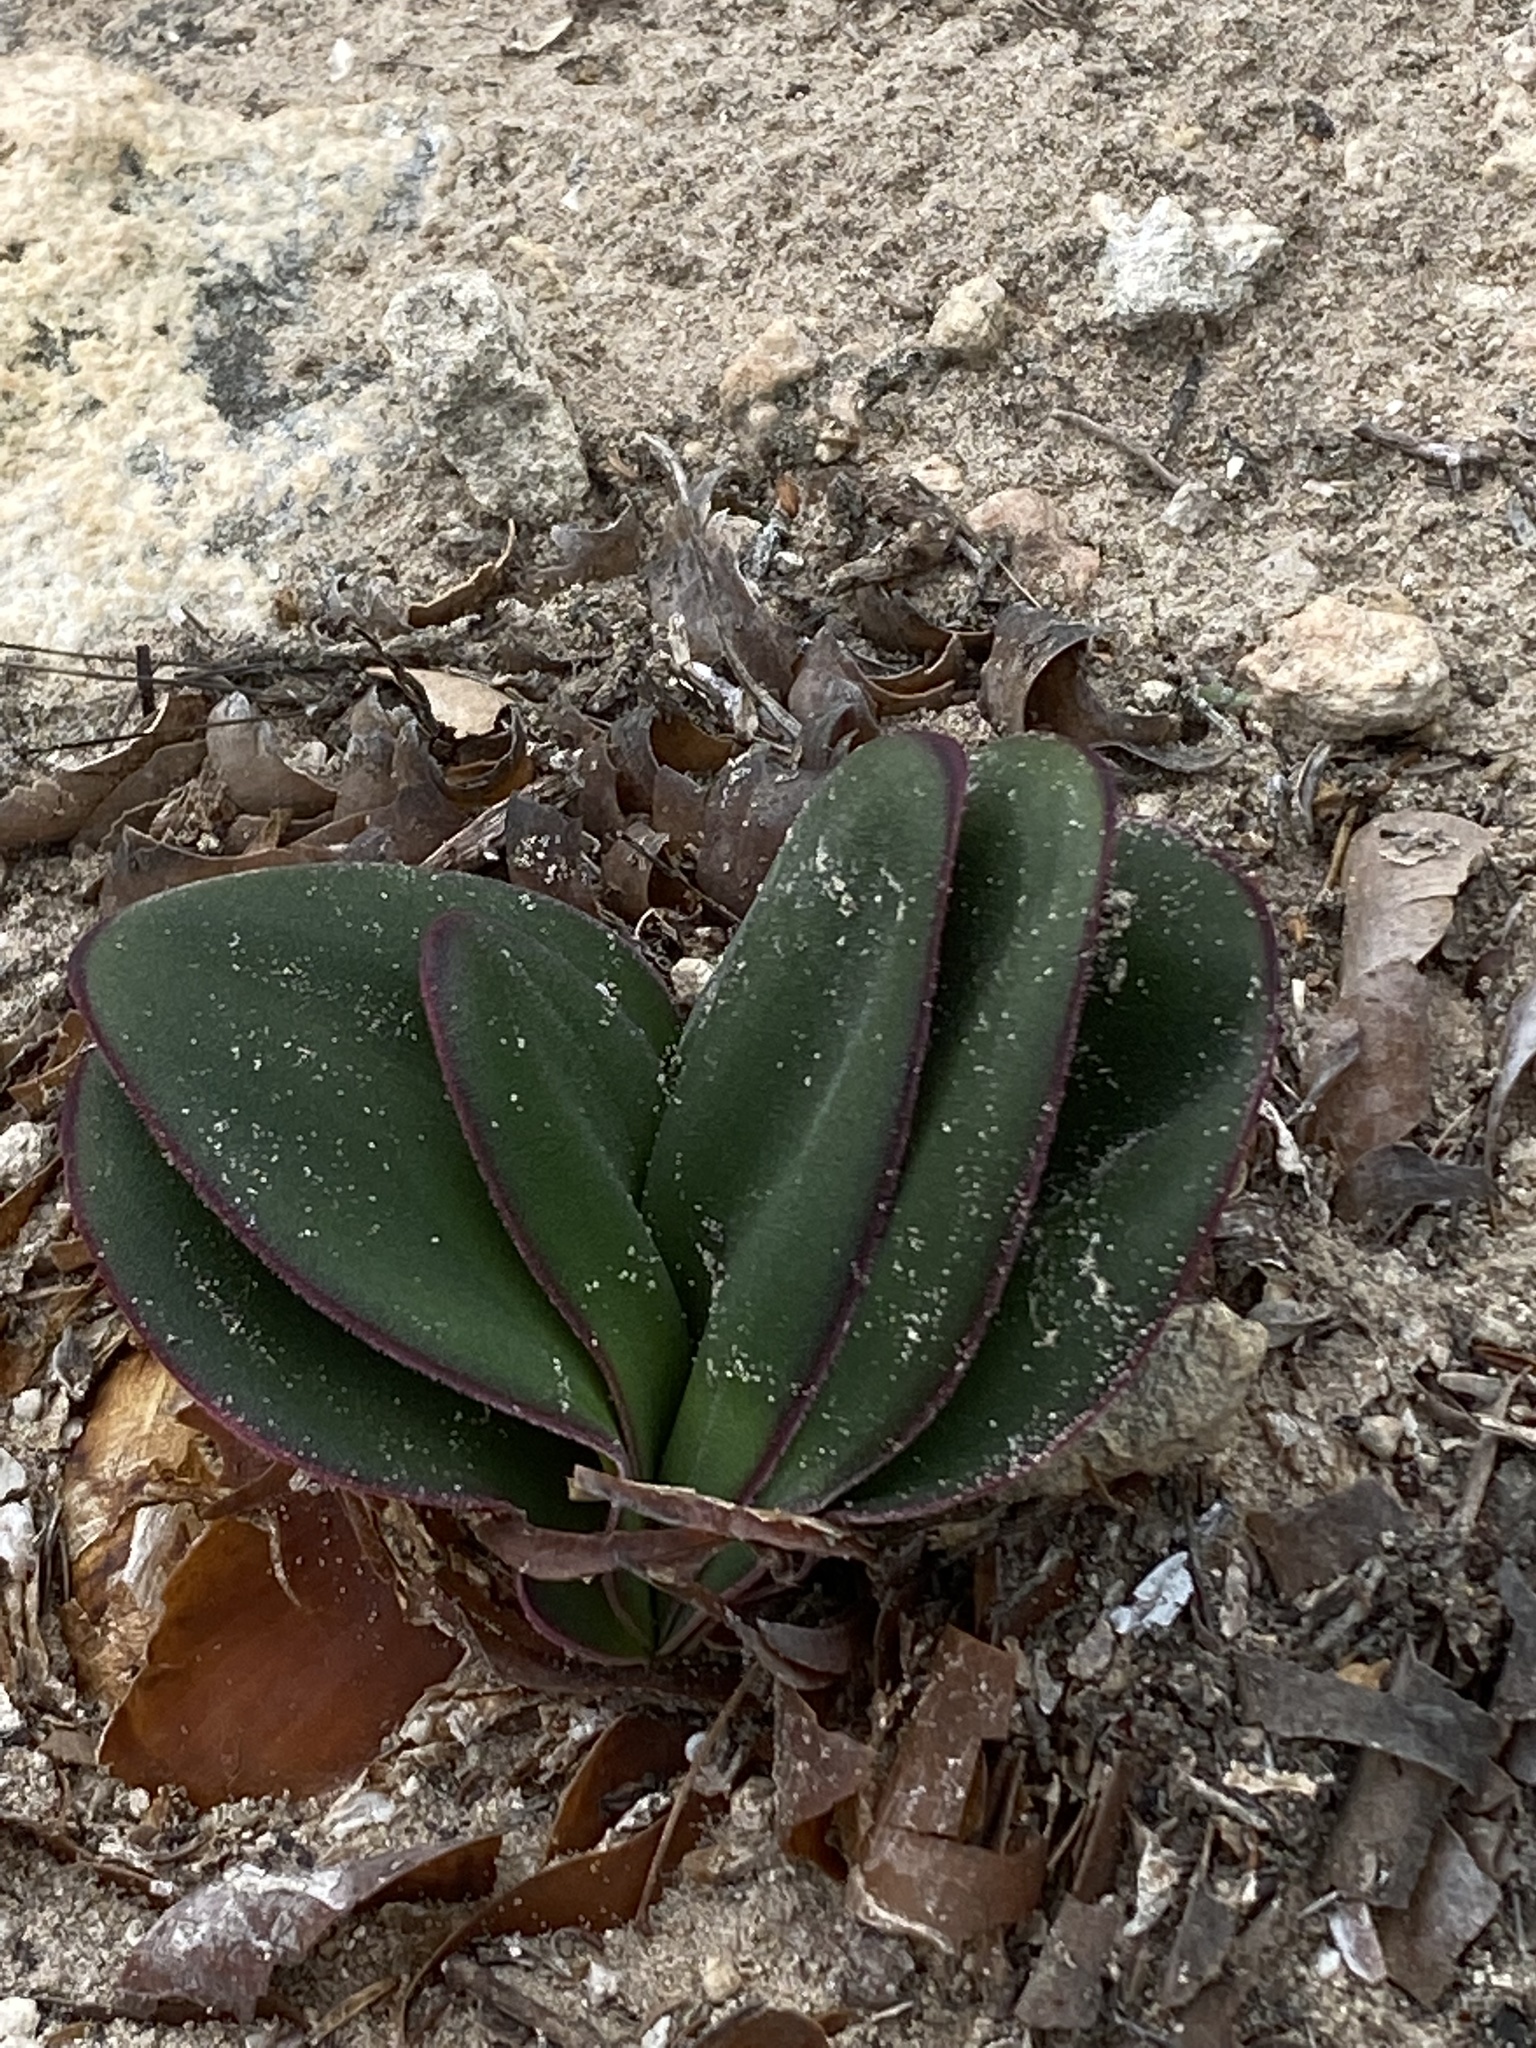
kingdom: Plantae
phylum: Tracheophyta
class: Liliopsida
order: Asparagales
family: Amaryllidaceae
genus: Brunsvigia
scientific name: Brunsvigia orientalis
